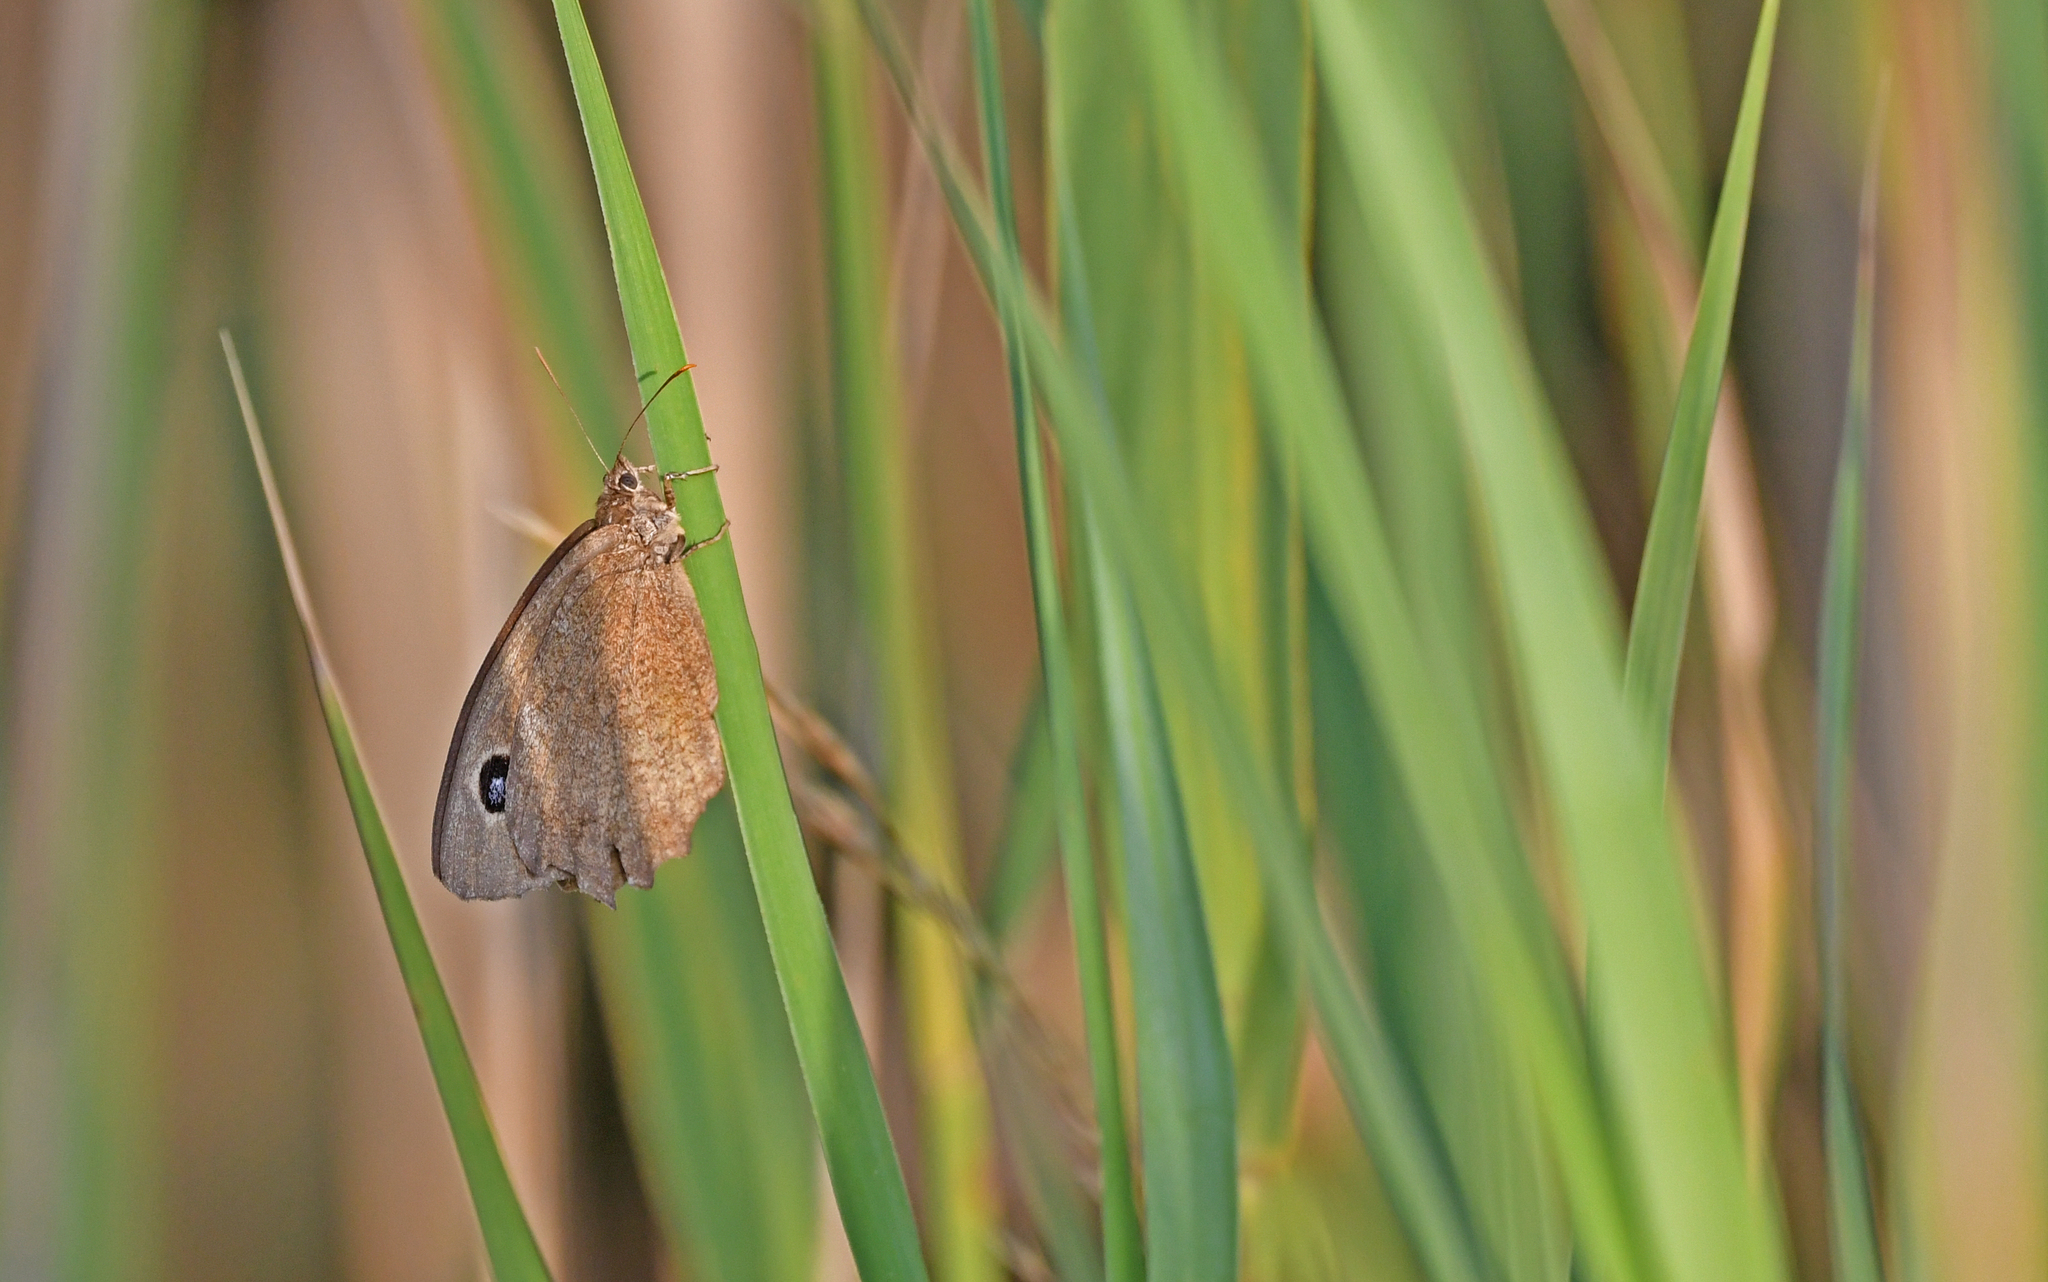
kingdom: Animalia
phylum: Arthropoda
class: Insecta
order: Lepidoptera
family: Nymphalidae
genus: Minois
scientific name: Minois dryas
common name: Dryad
